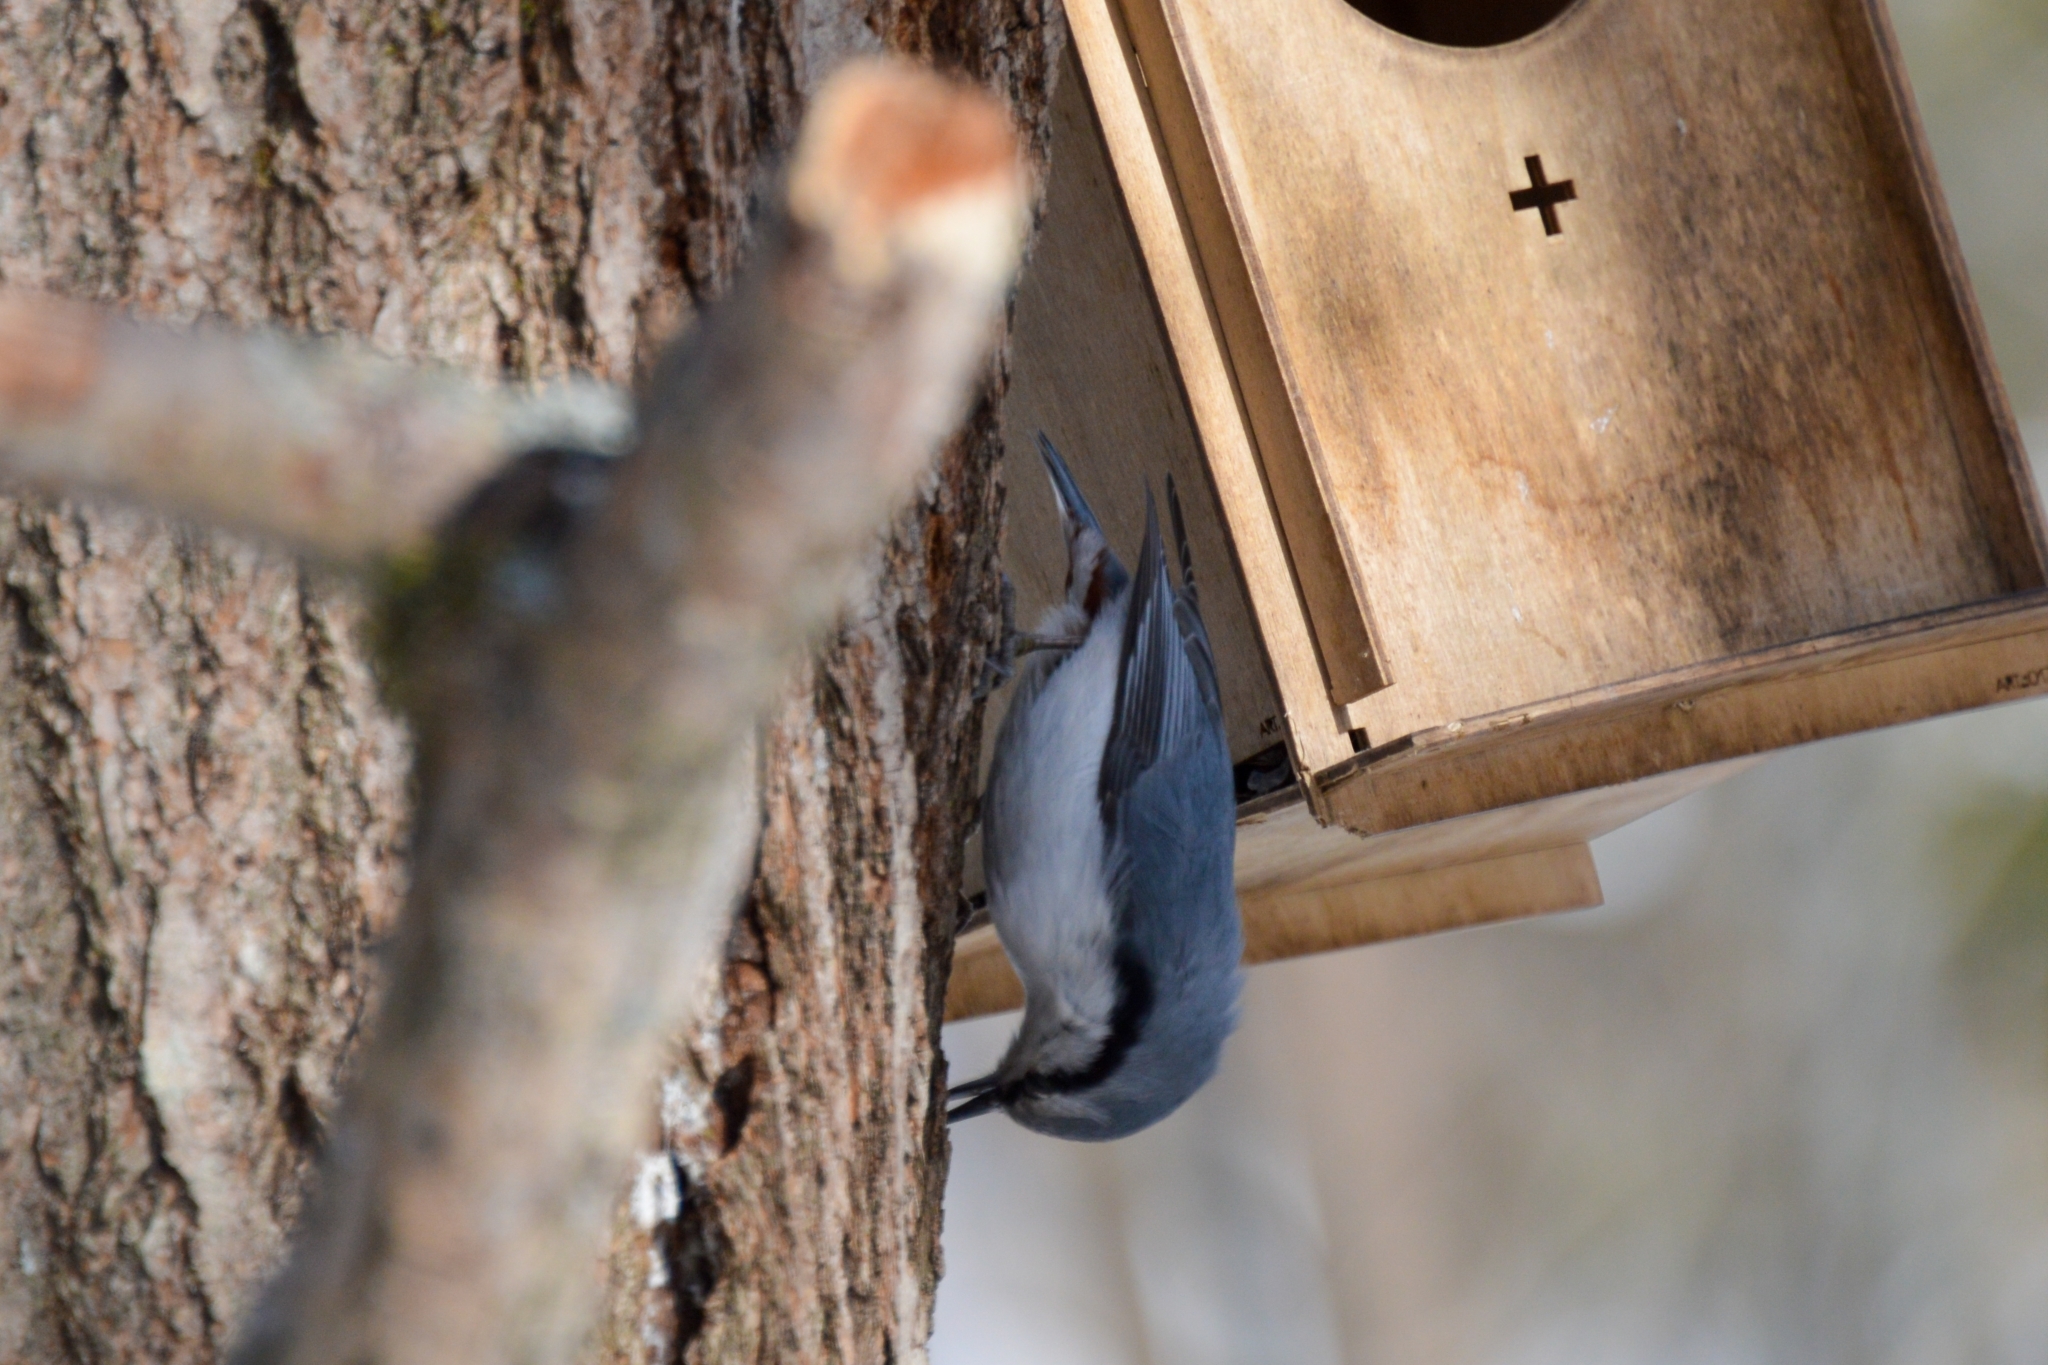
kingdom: Animalia
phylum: Chordata
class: Aves
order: Passeriformes
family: Sittidae
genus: Sitta
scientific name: Sitta europaea
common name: Eurasian nuthatch
